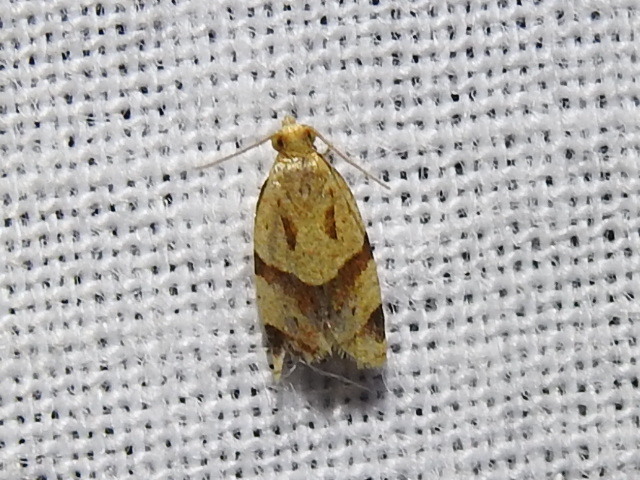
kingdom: Animalia
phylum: Arthropoda
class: Insecta
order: Lepidoptera
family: Tortricidae
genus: Clepsis
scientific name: Clepsis peritana
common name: Garden tortrix
